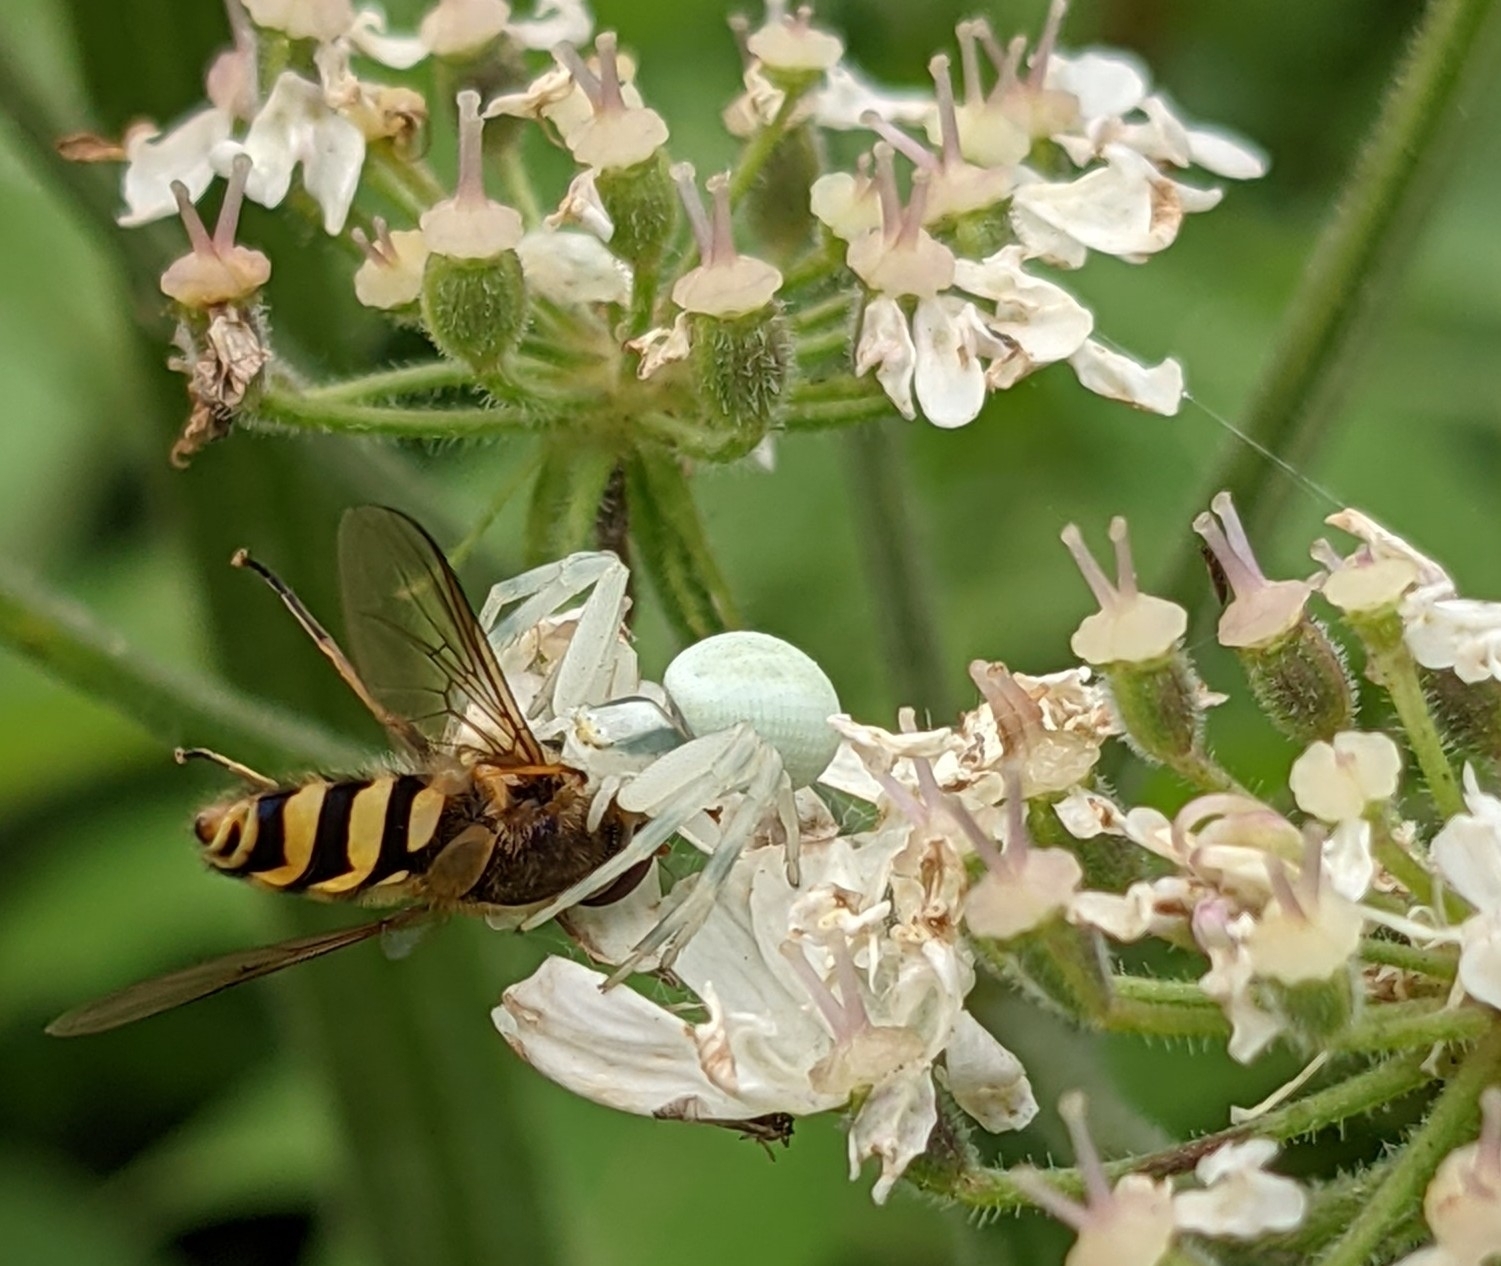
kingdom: Animalia
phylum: Arthropoda
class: Arachnida
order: Araneae
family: Thomisidae
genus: Misumena
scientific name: Misumena vatia
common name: Goldenrod crab spider
